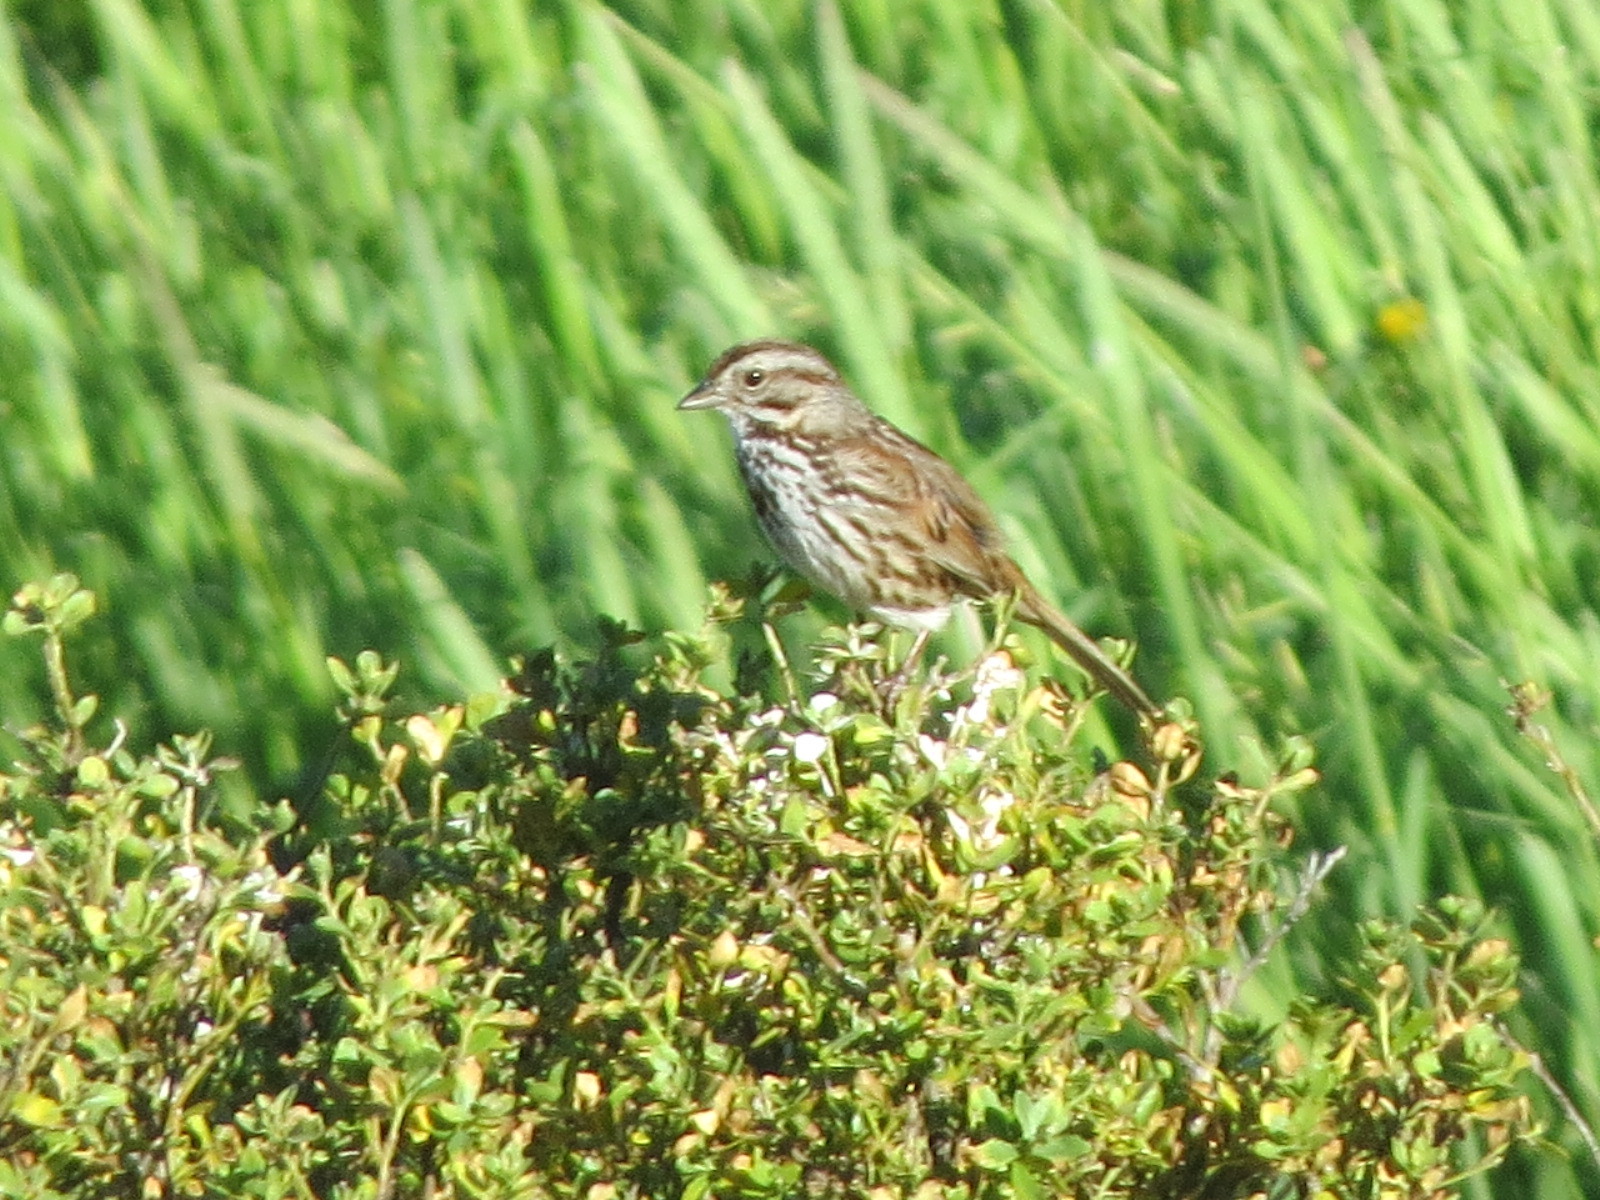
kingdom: Animalia
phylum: Chordata
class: Aves
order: Passeriformes
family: Passerellidae
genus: Melospiza
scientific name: Melospiza melodia
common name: Song sparrow
